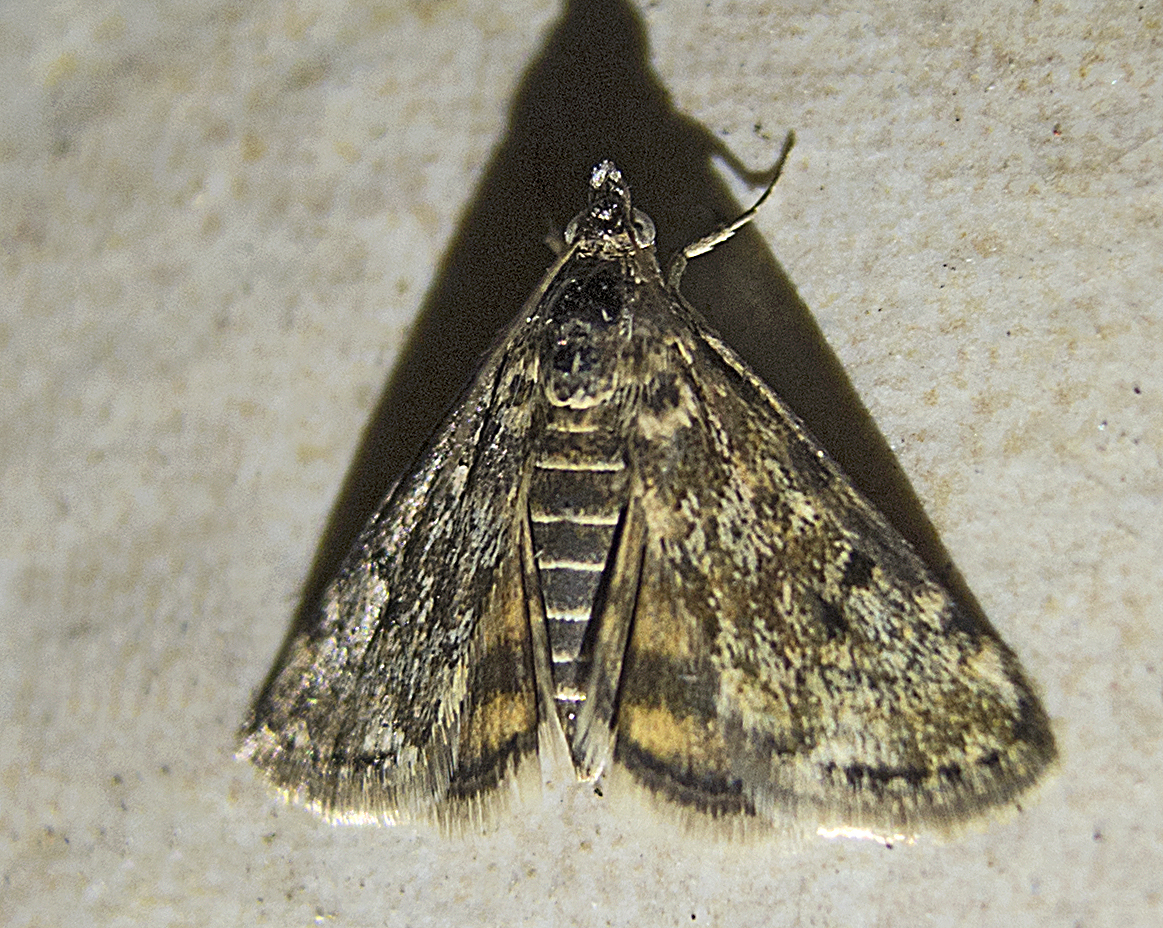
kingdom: Animalia
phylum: Arthropoda
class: Insecta
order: Lepidoptera
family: Crambidae
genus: Noctuelia
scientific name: Noctuelia Aporodes floralis
